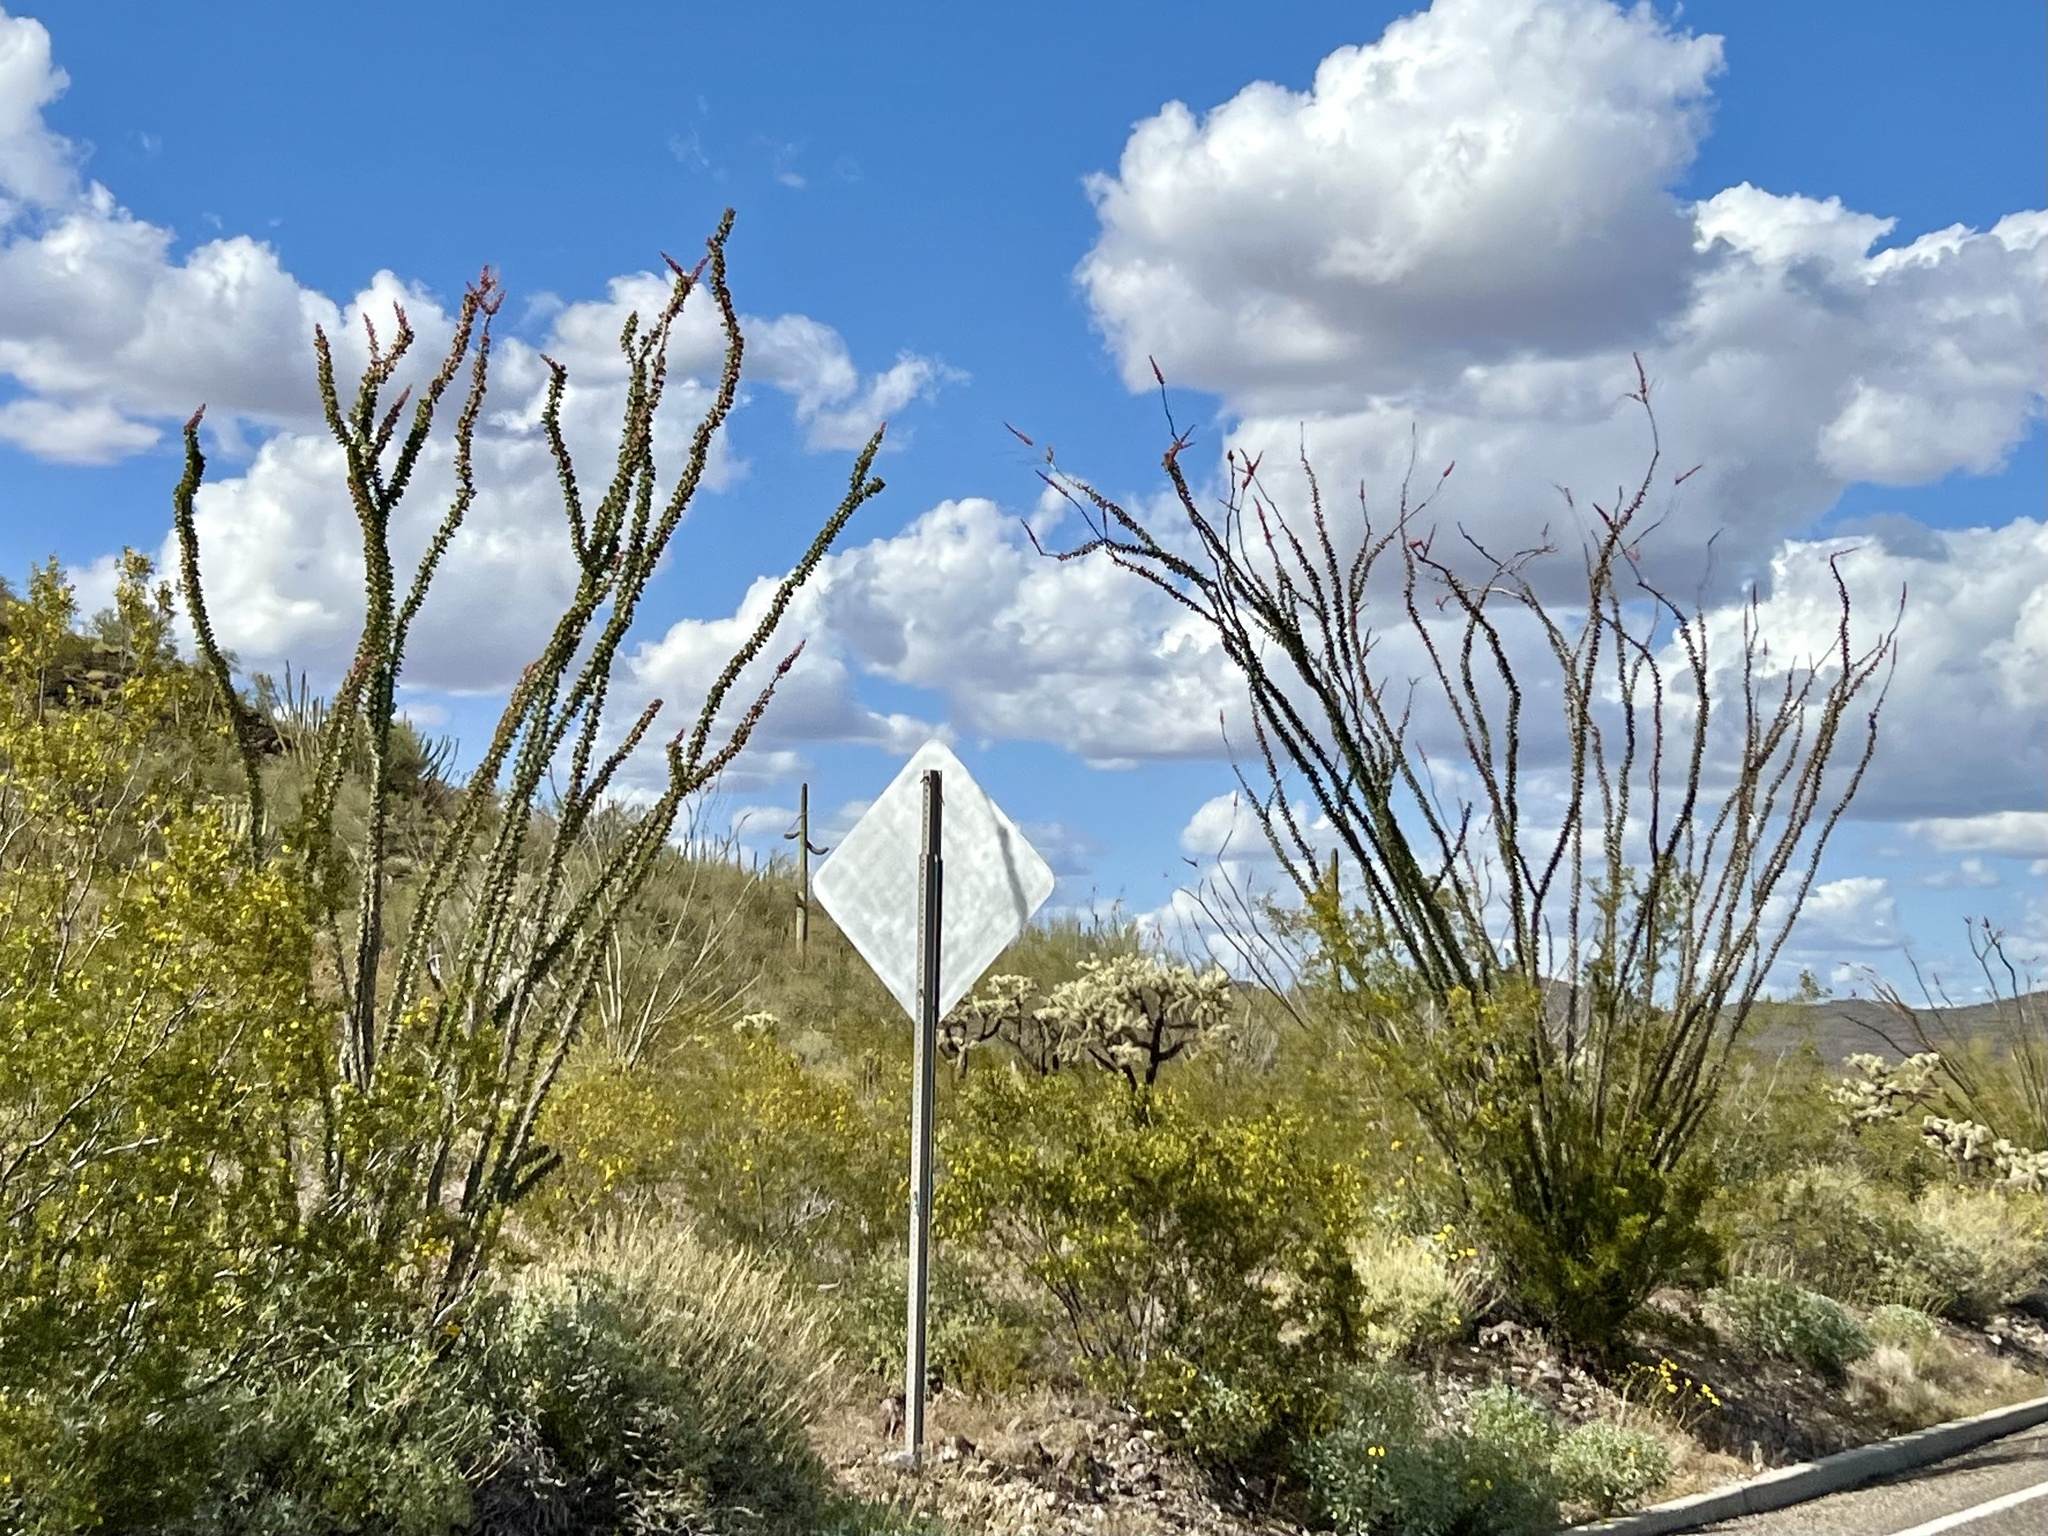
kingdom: Plantae
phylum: Tracheophyta
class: Magnoliopsida
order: Ericales
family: Fouquieriaceae
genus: Fouquieria
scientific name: Fouquieria splendens
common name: Vine-cactus
